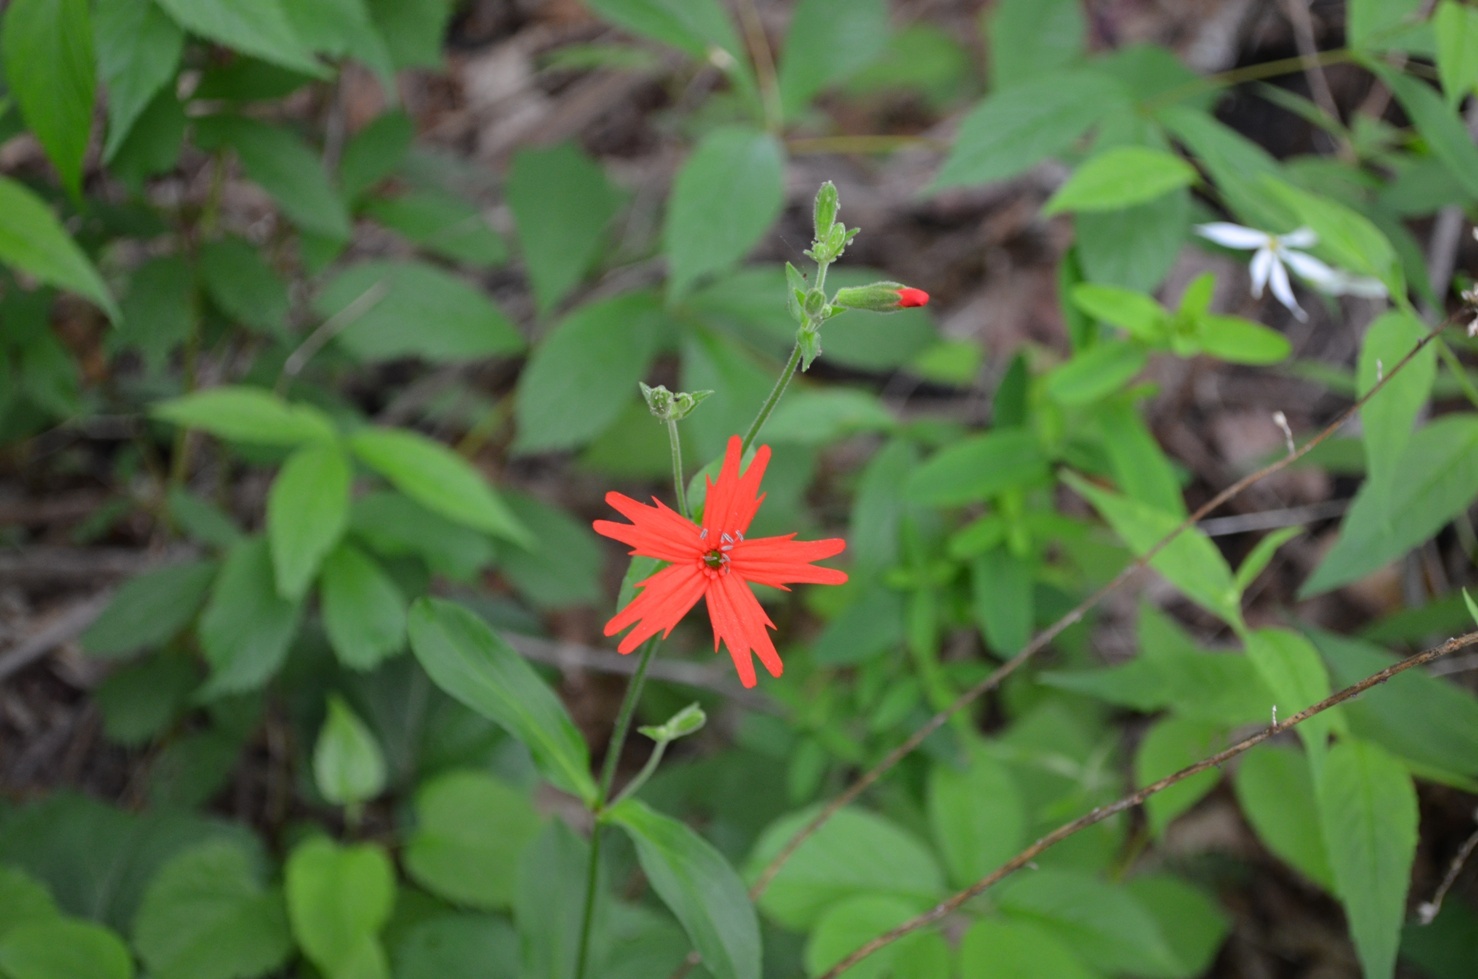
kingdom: Plantae
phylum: Tracheophyta
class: Magnoliopsida
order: Caryophyllales
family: Caryophyllaceae
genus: Silene
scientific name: Silene virginica
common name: Fire-pink
